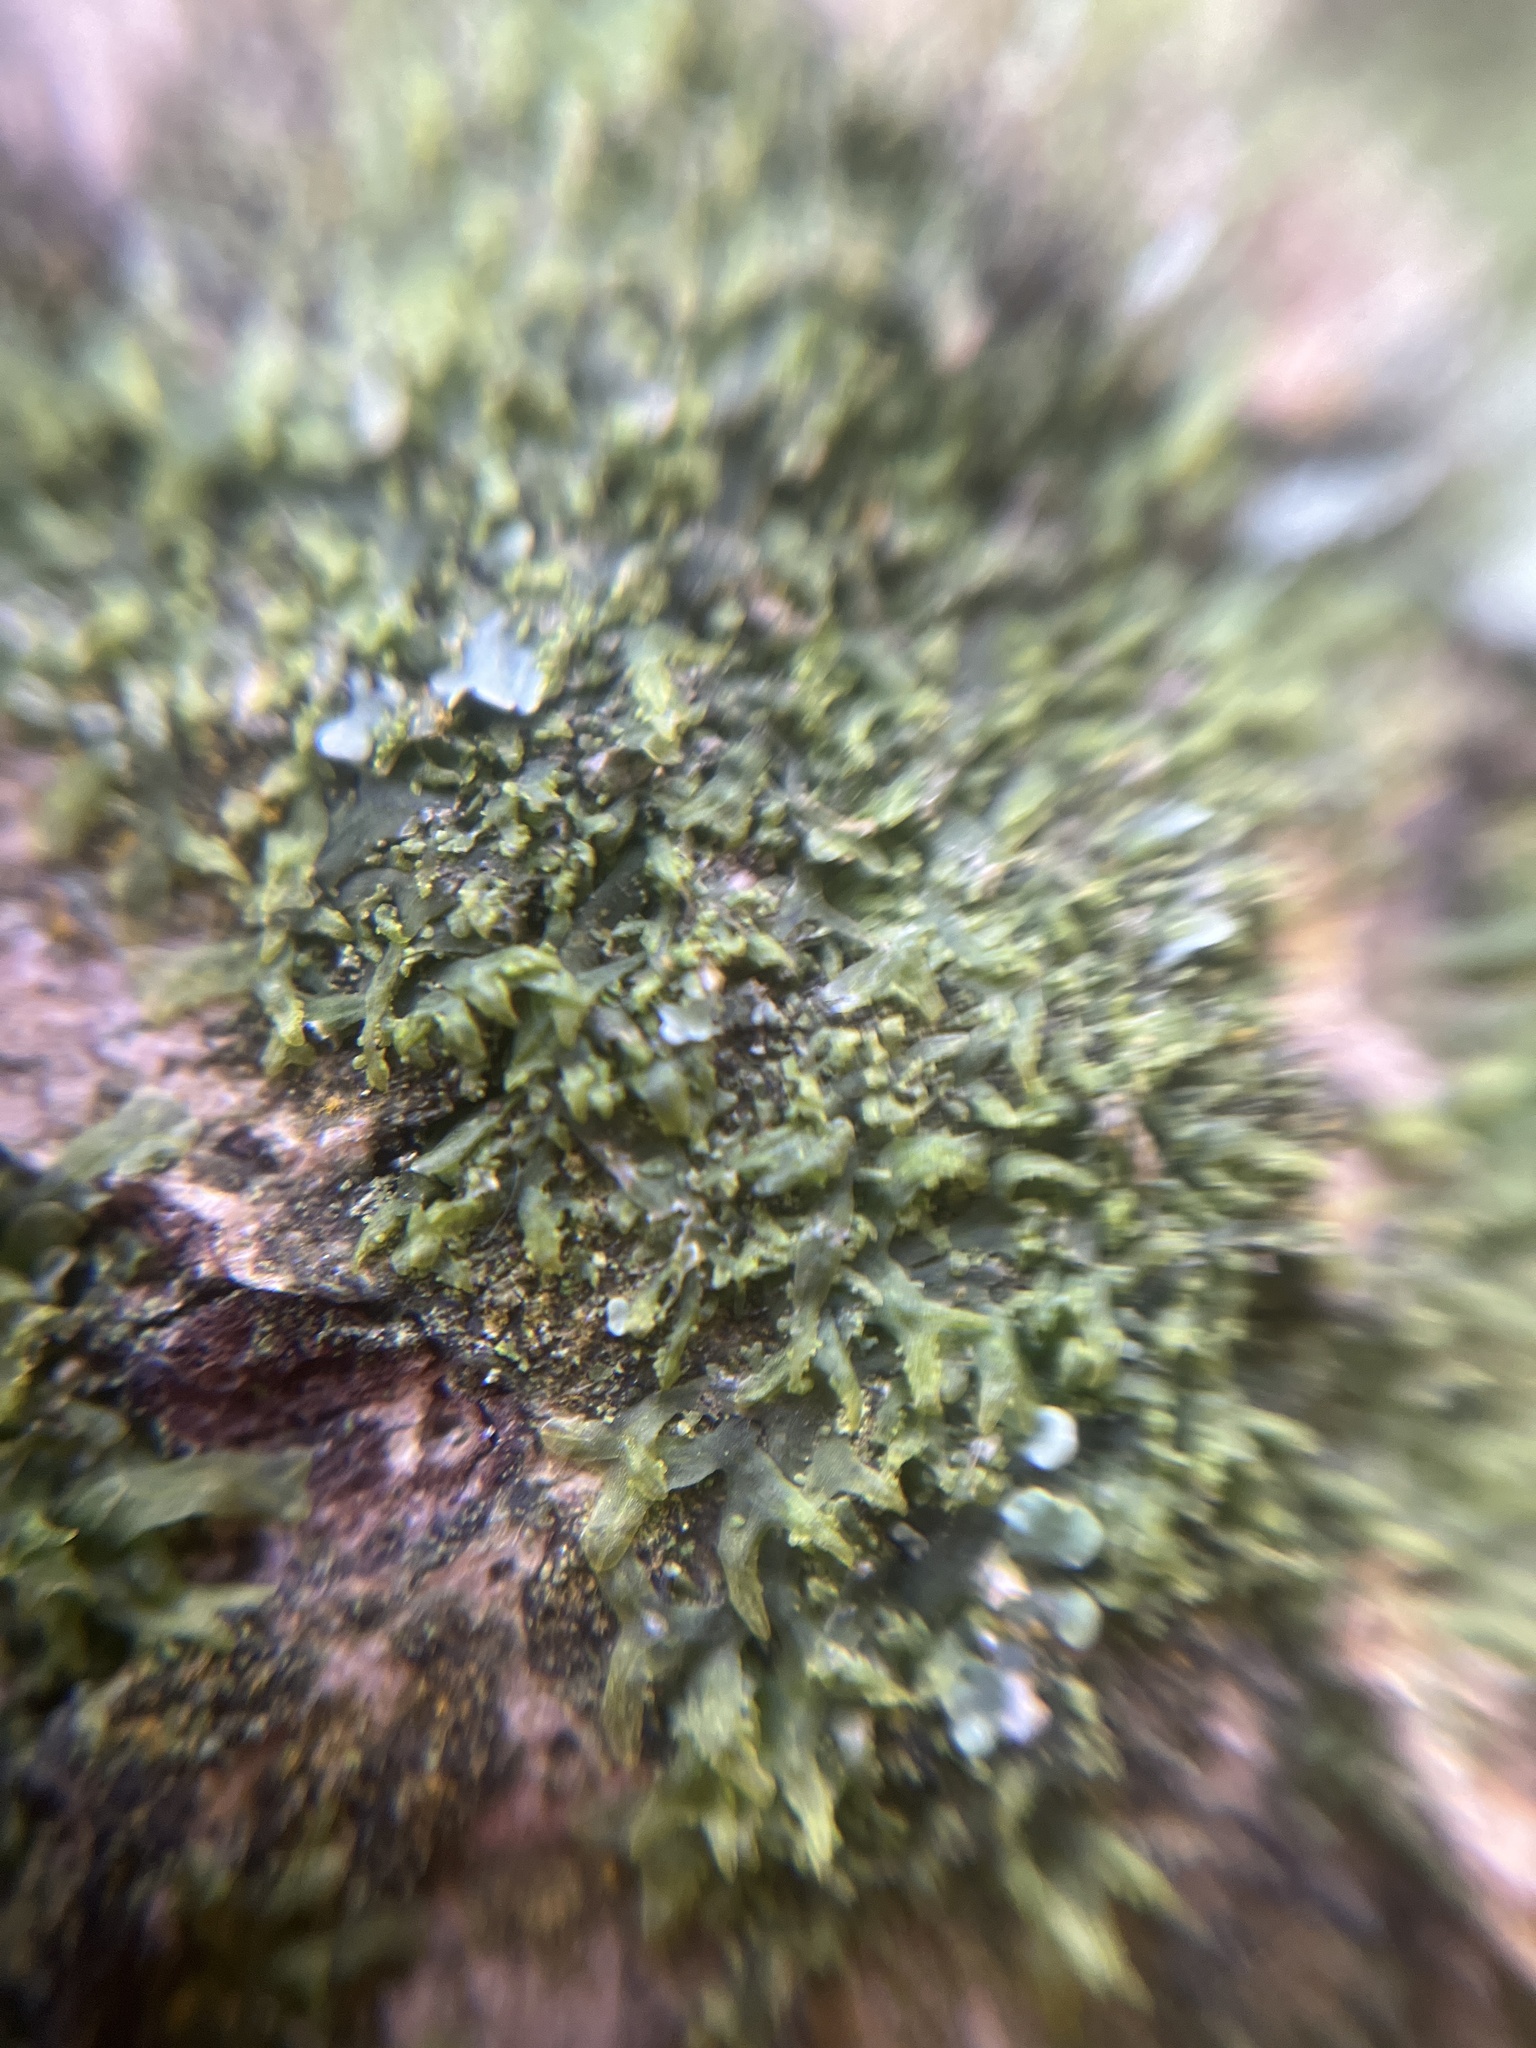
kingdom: Plantae
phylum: Marchantiophyta
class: Jungermanniopsida
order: Metzgeriales
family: Metzgeriaceae
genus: Metzgeria
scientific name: Metzgeria furcata
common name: Forked veilwort
